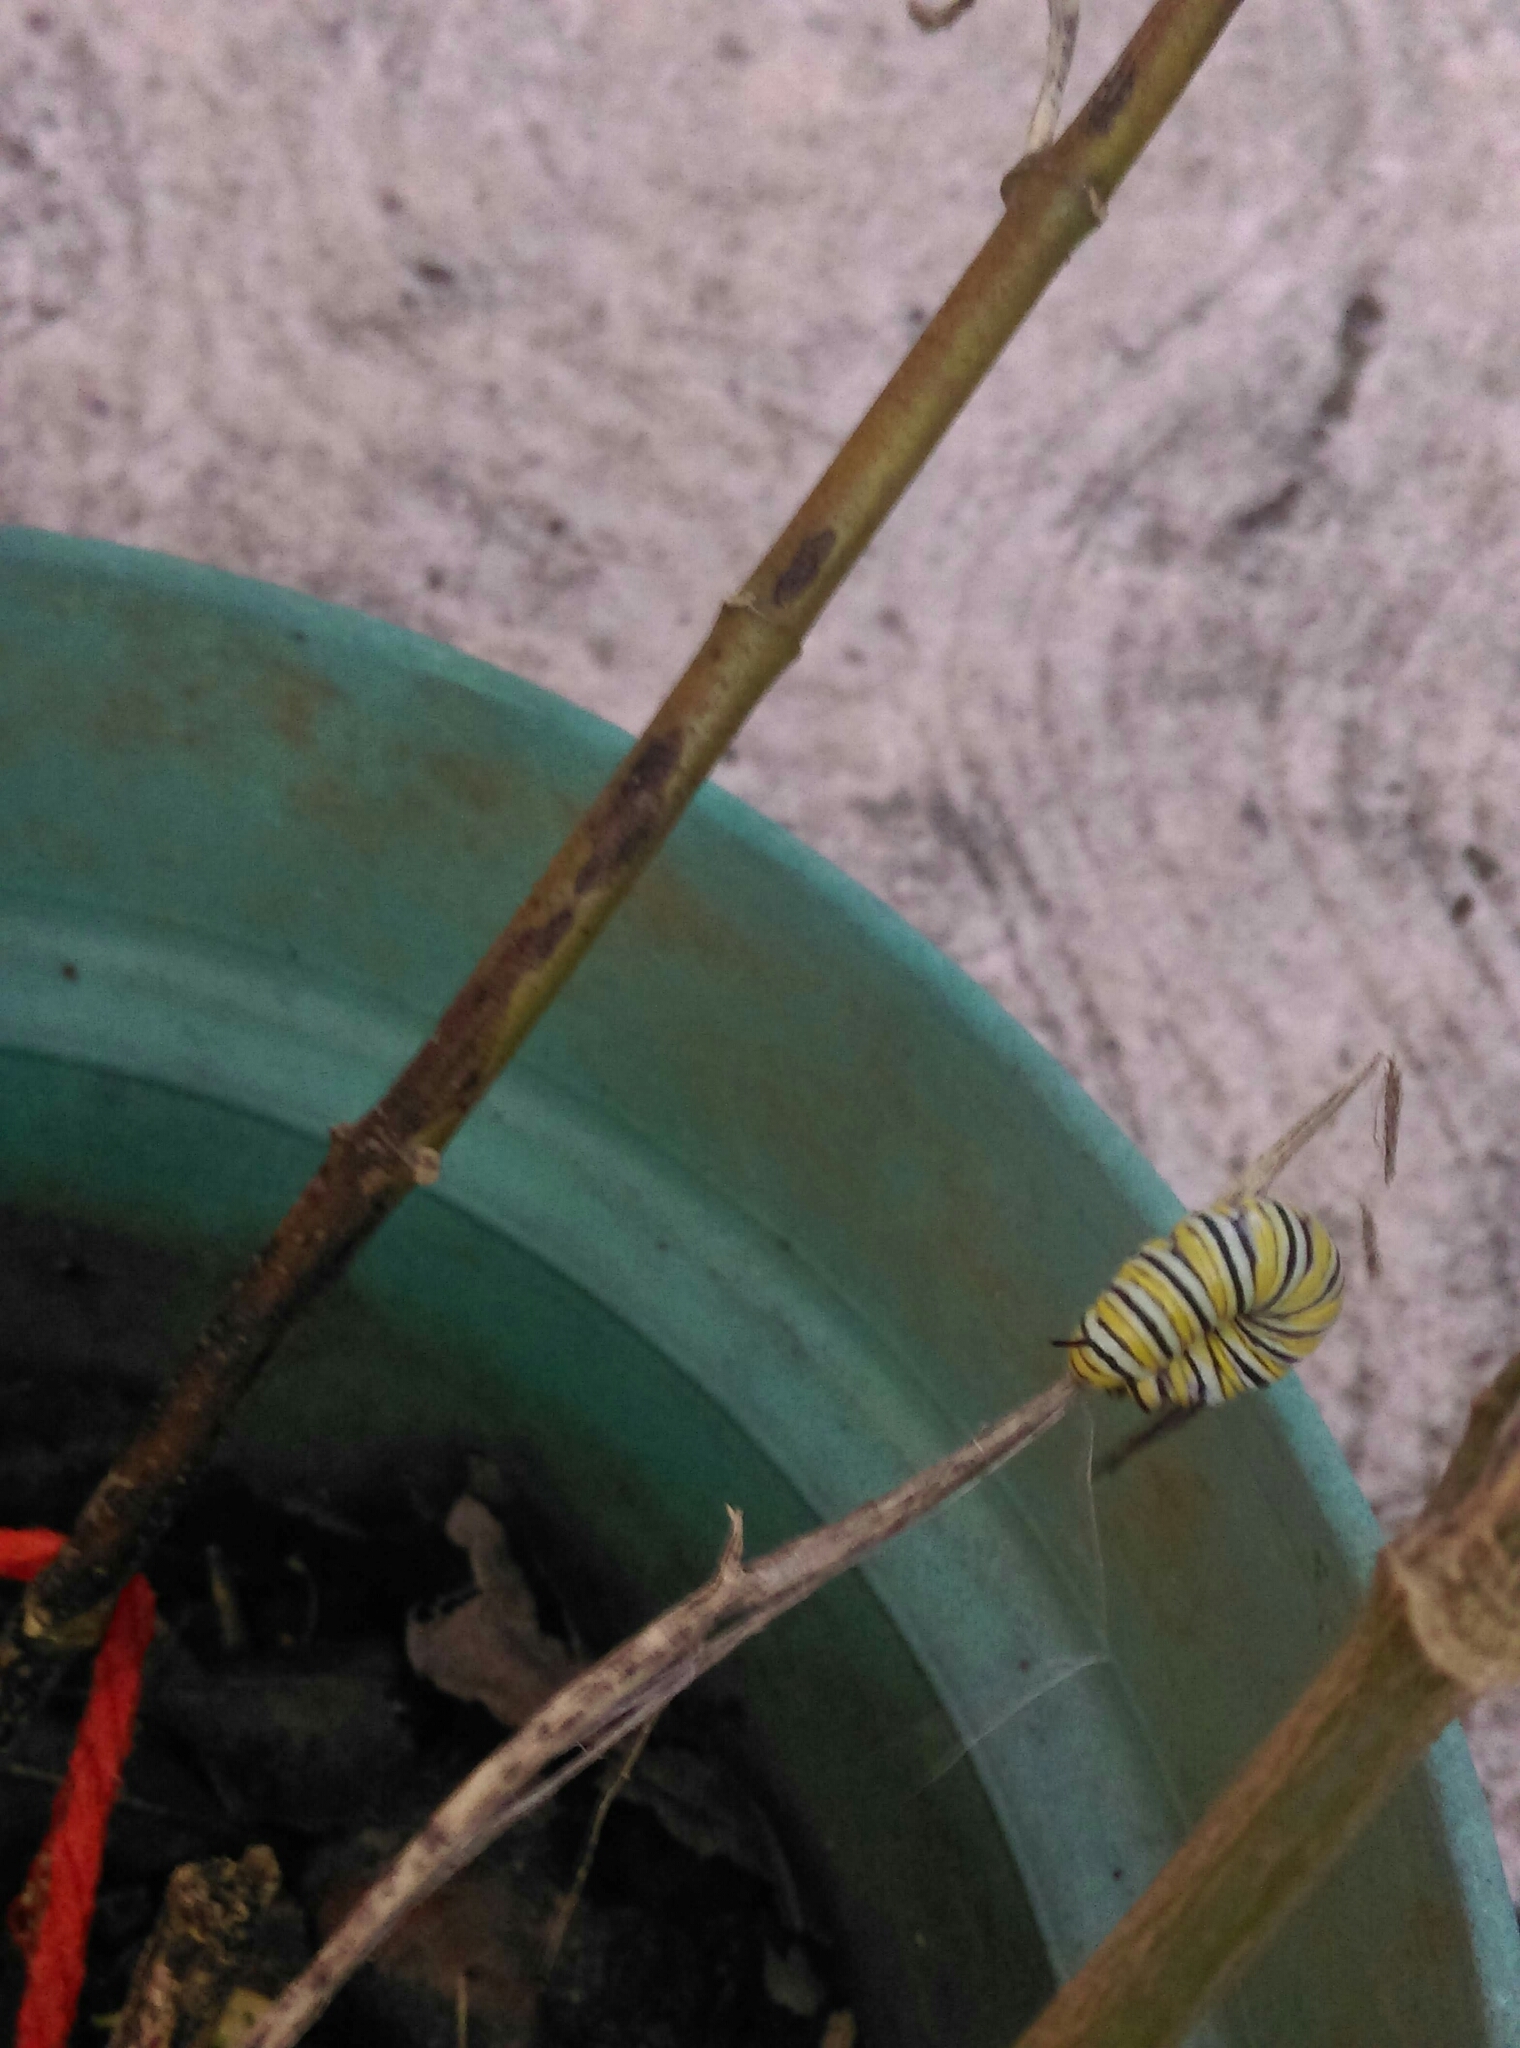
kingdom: Animalia
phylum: Arthropoda
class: Insecta
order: Lepidoptera
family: Nymphalidae
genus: Danaus
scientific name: Danaus plexippus
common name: Monarch
